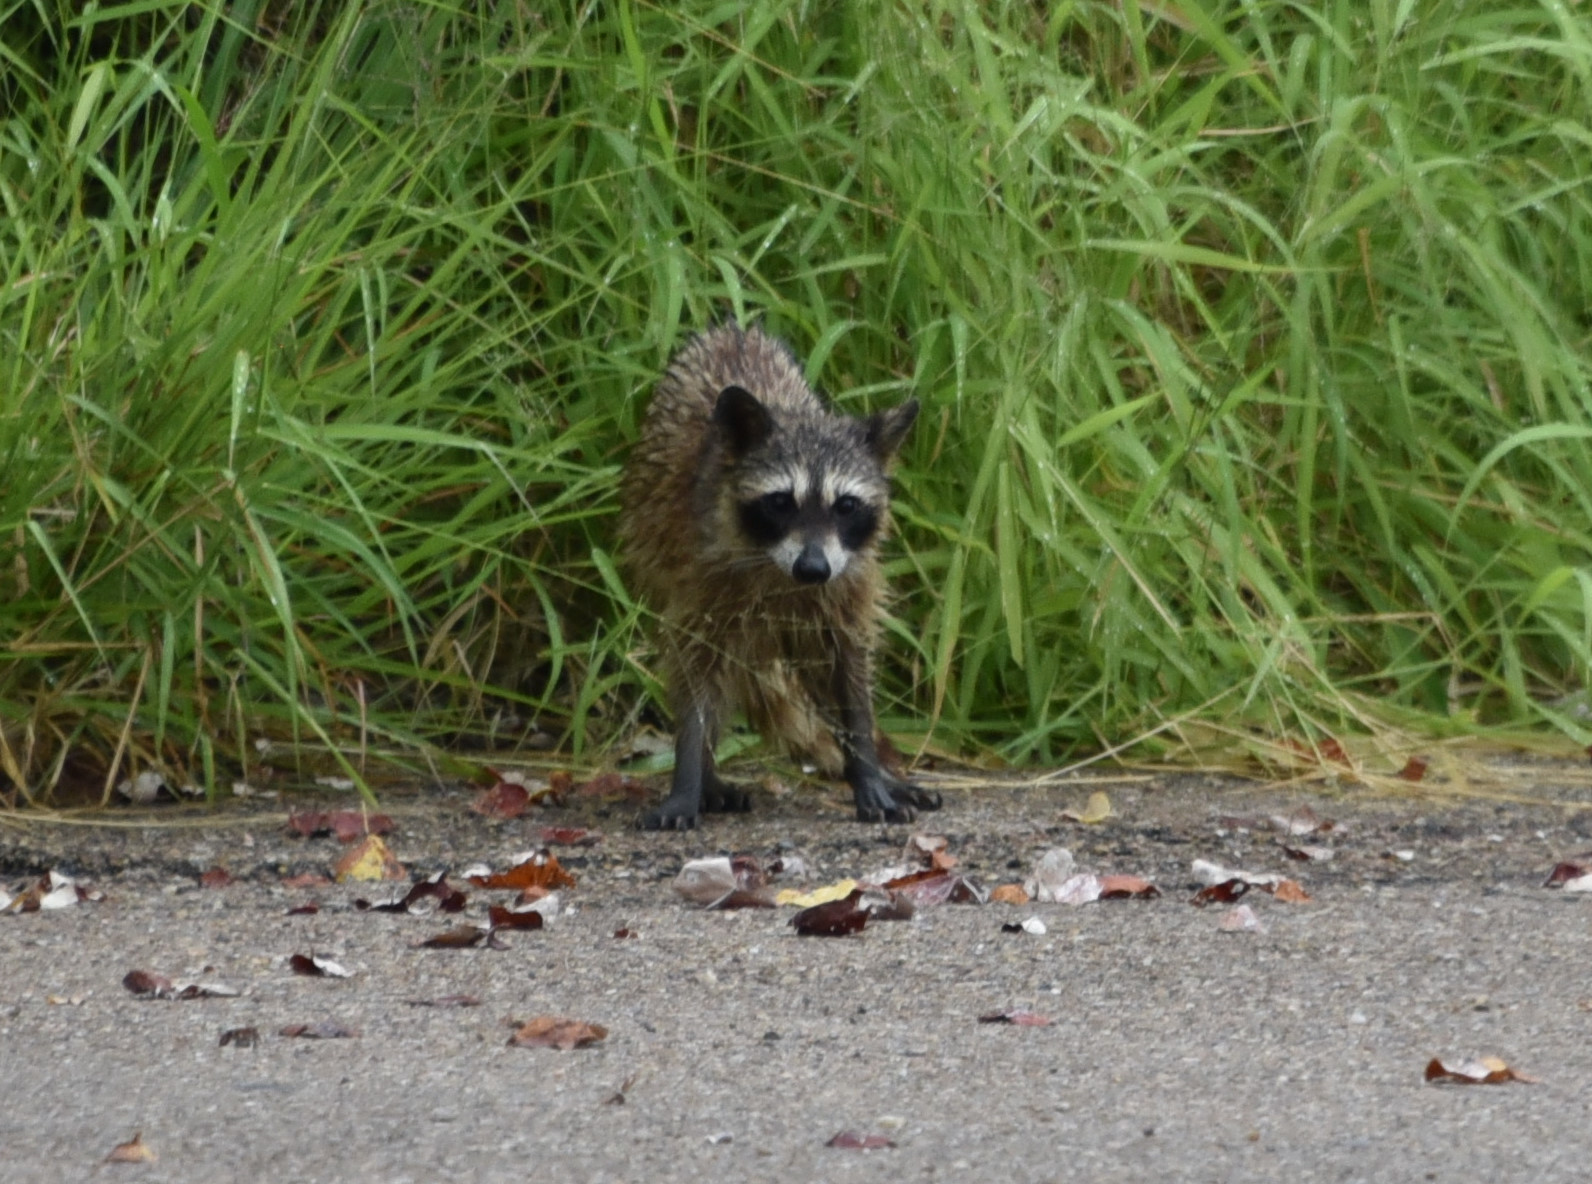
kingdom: Animalia
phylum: Chordata
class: Mammalia
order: Carnivora
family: Procyonidae
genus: Procyon
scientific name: Procyon lotor
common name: Raccoon
